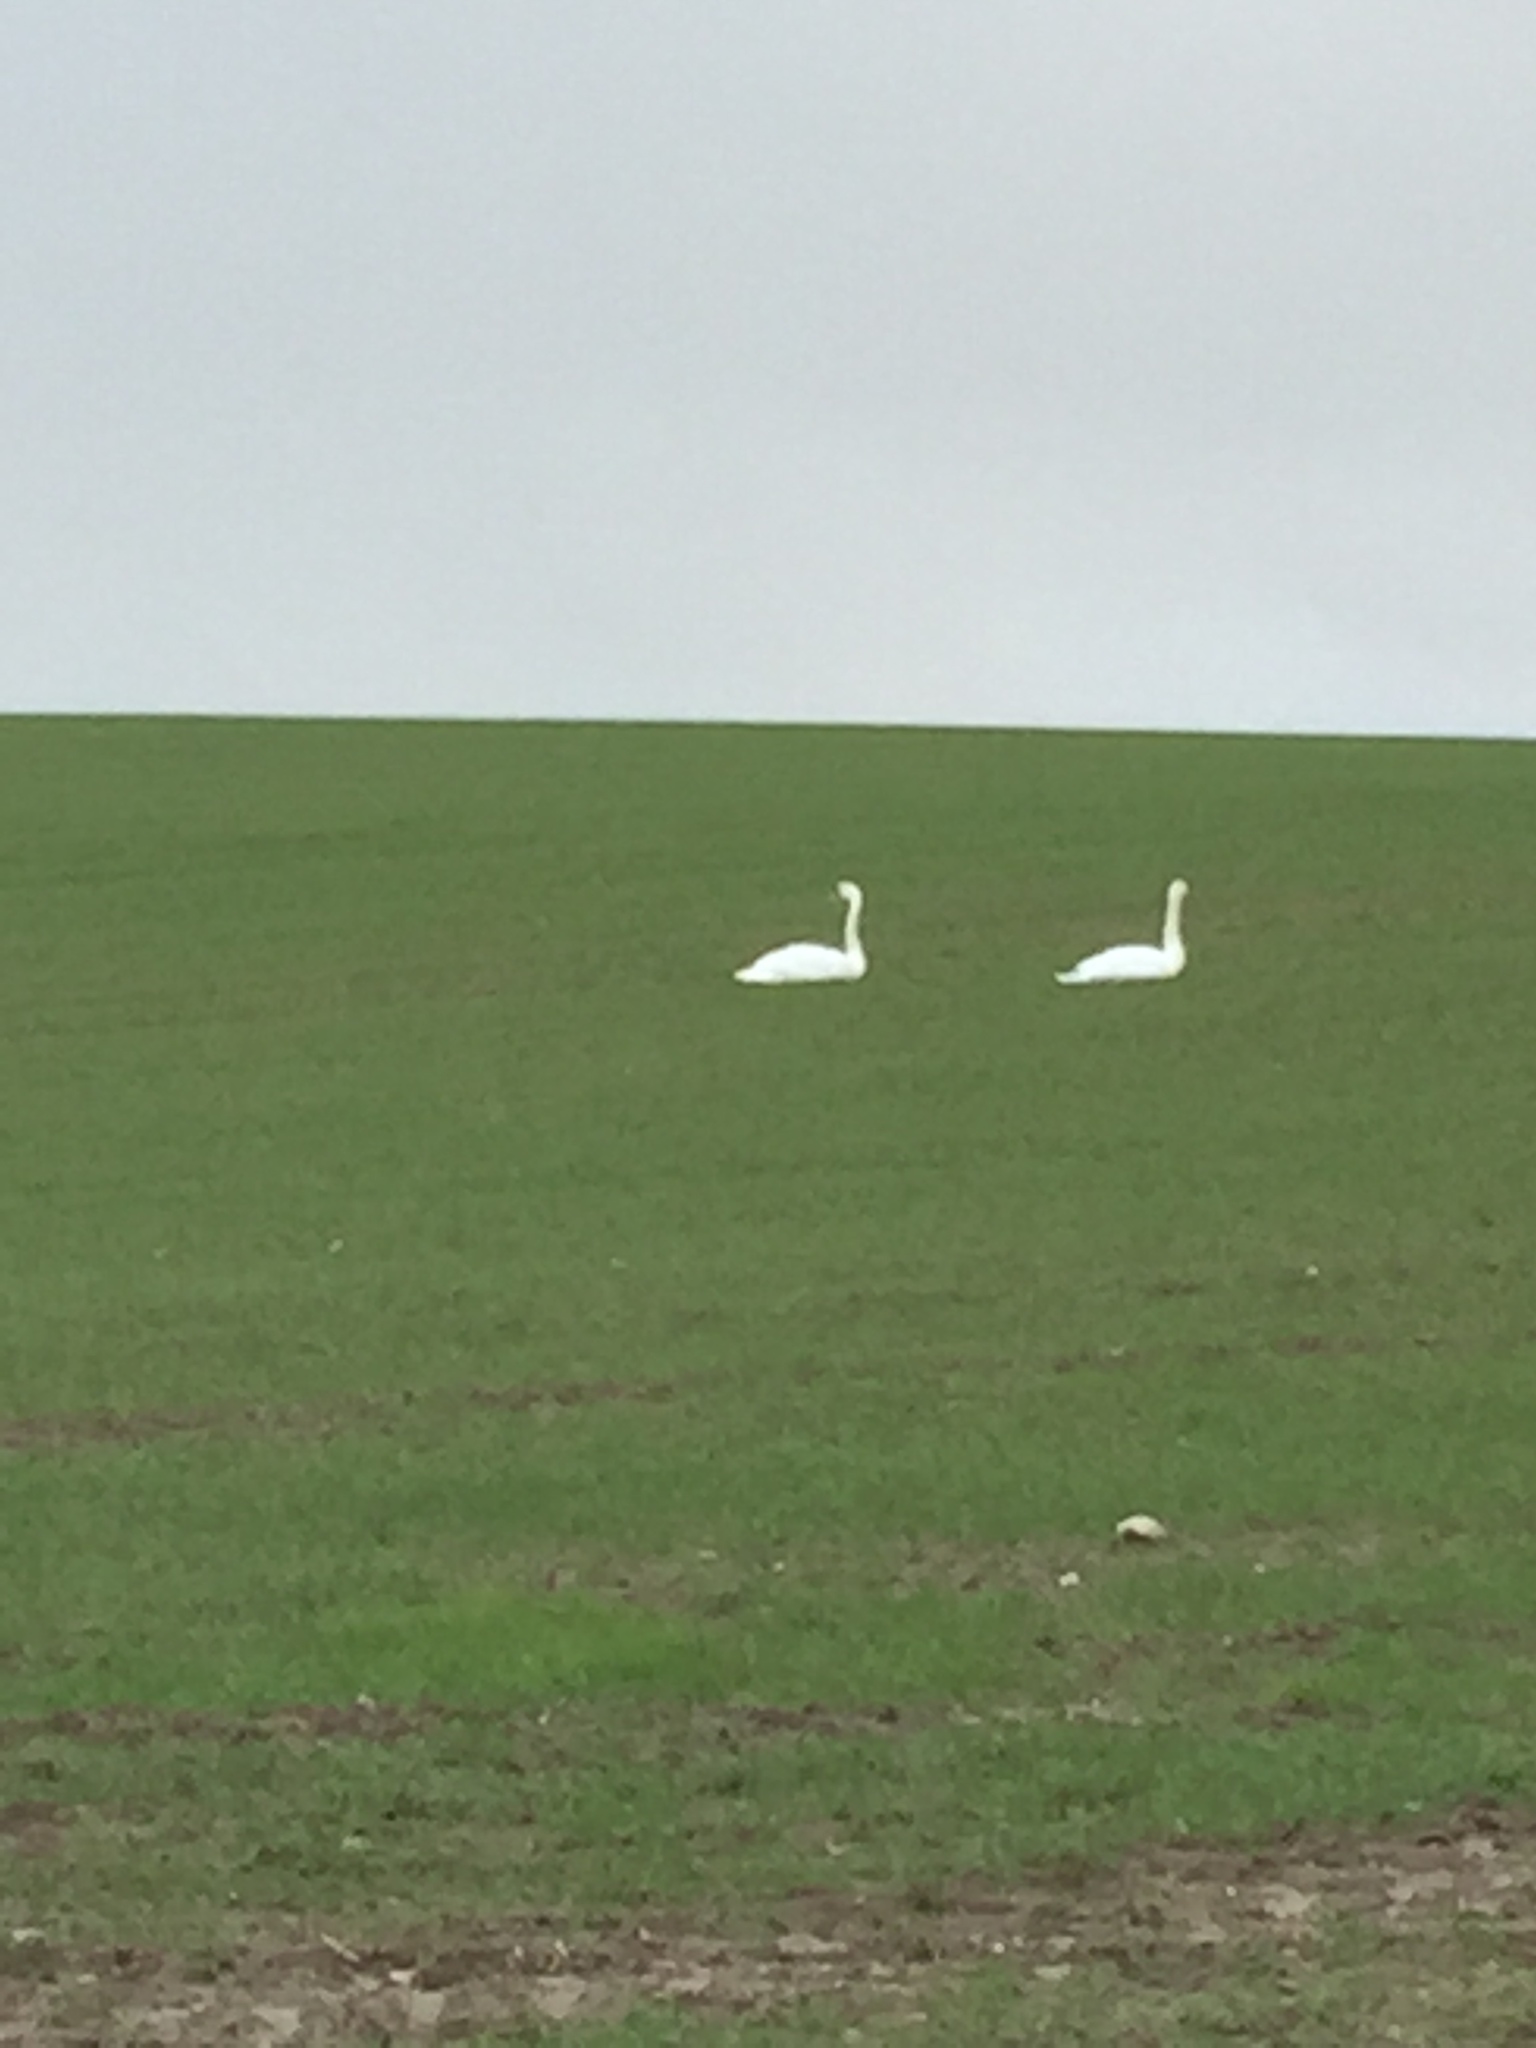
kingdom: Animalia
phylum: Chordata
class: Aves
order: Anseriformes
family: Anatidae
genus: Cygnus
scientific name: Cygnus olor
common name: Mute swan
